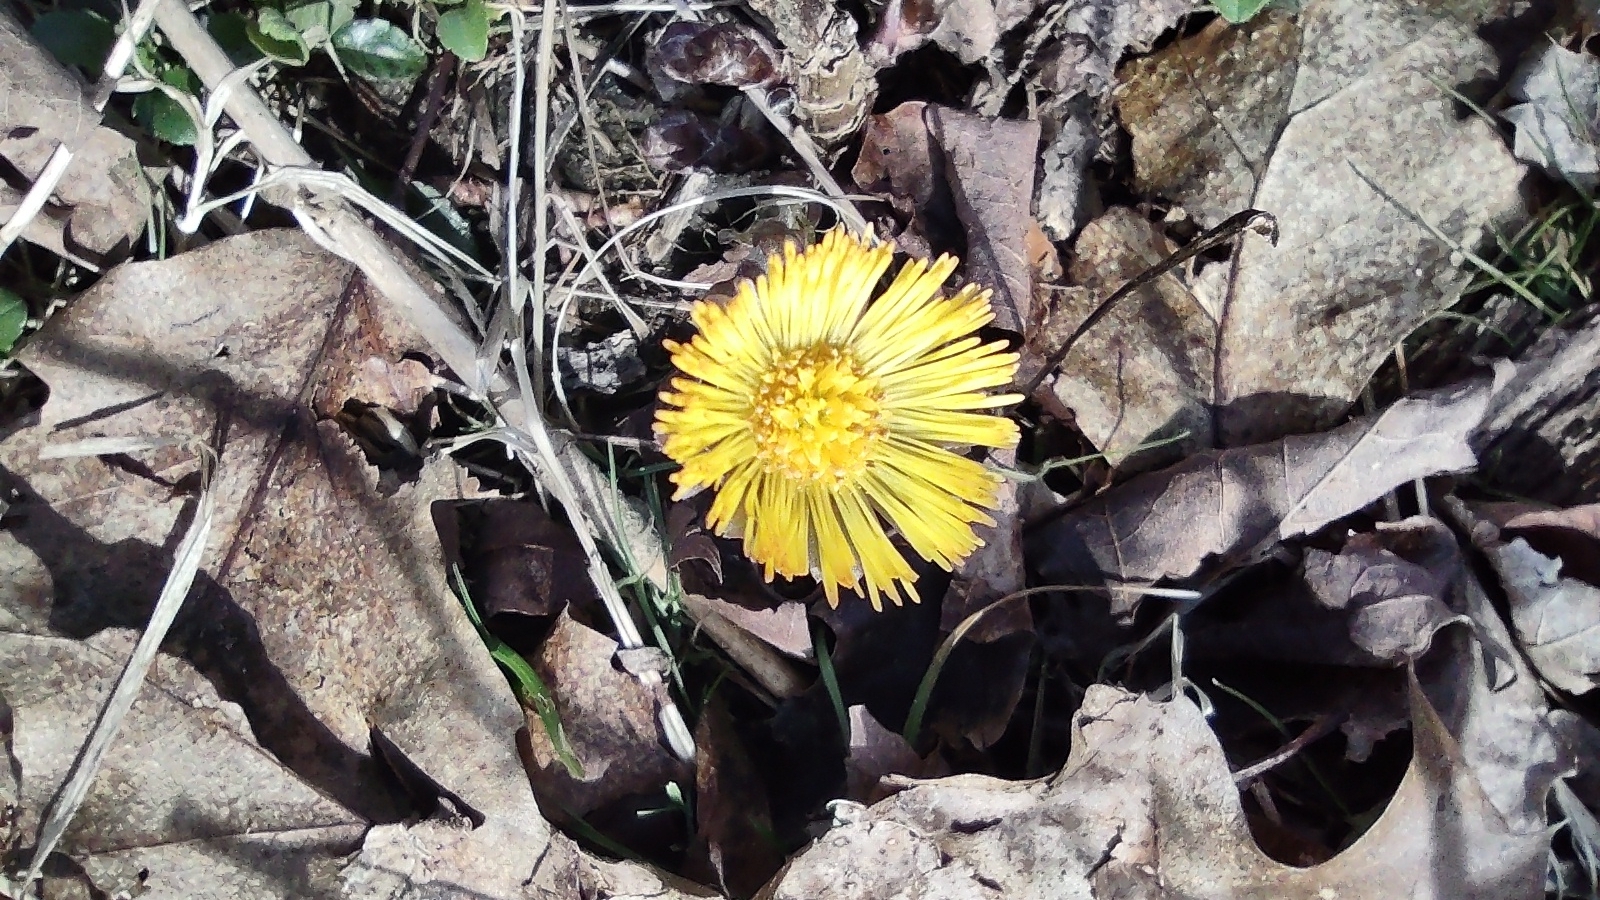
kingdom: Plantae
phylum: Tracheophyta
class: Magnoliopsida
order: Asterales
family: Asteraceae
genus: Tussilago
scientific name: Tussilago farfara
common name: Coltsfoot
